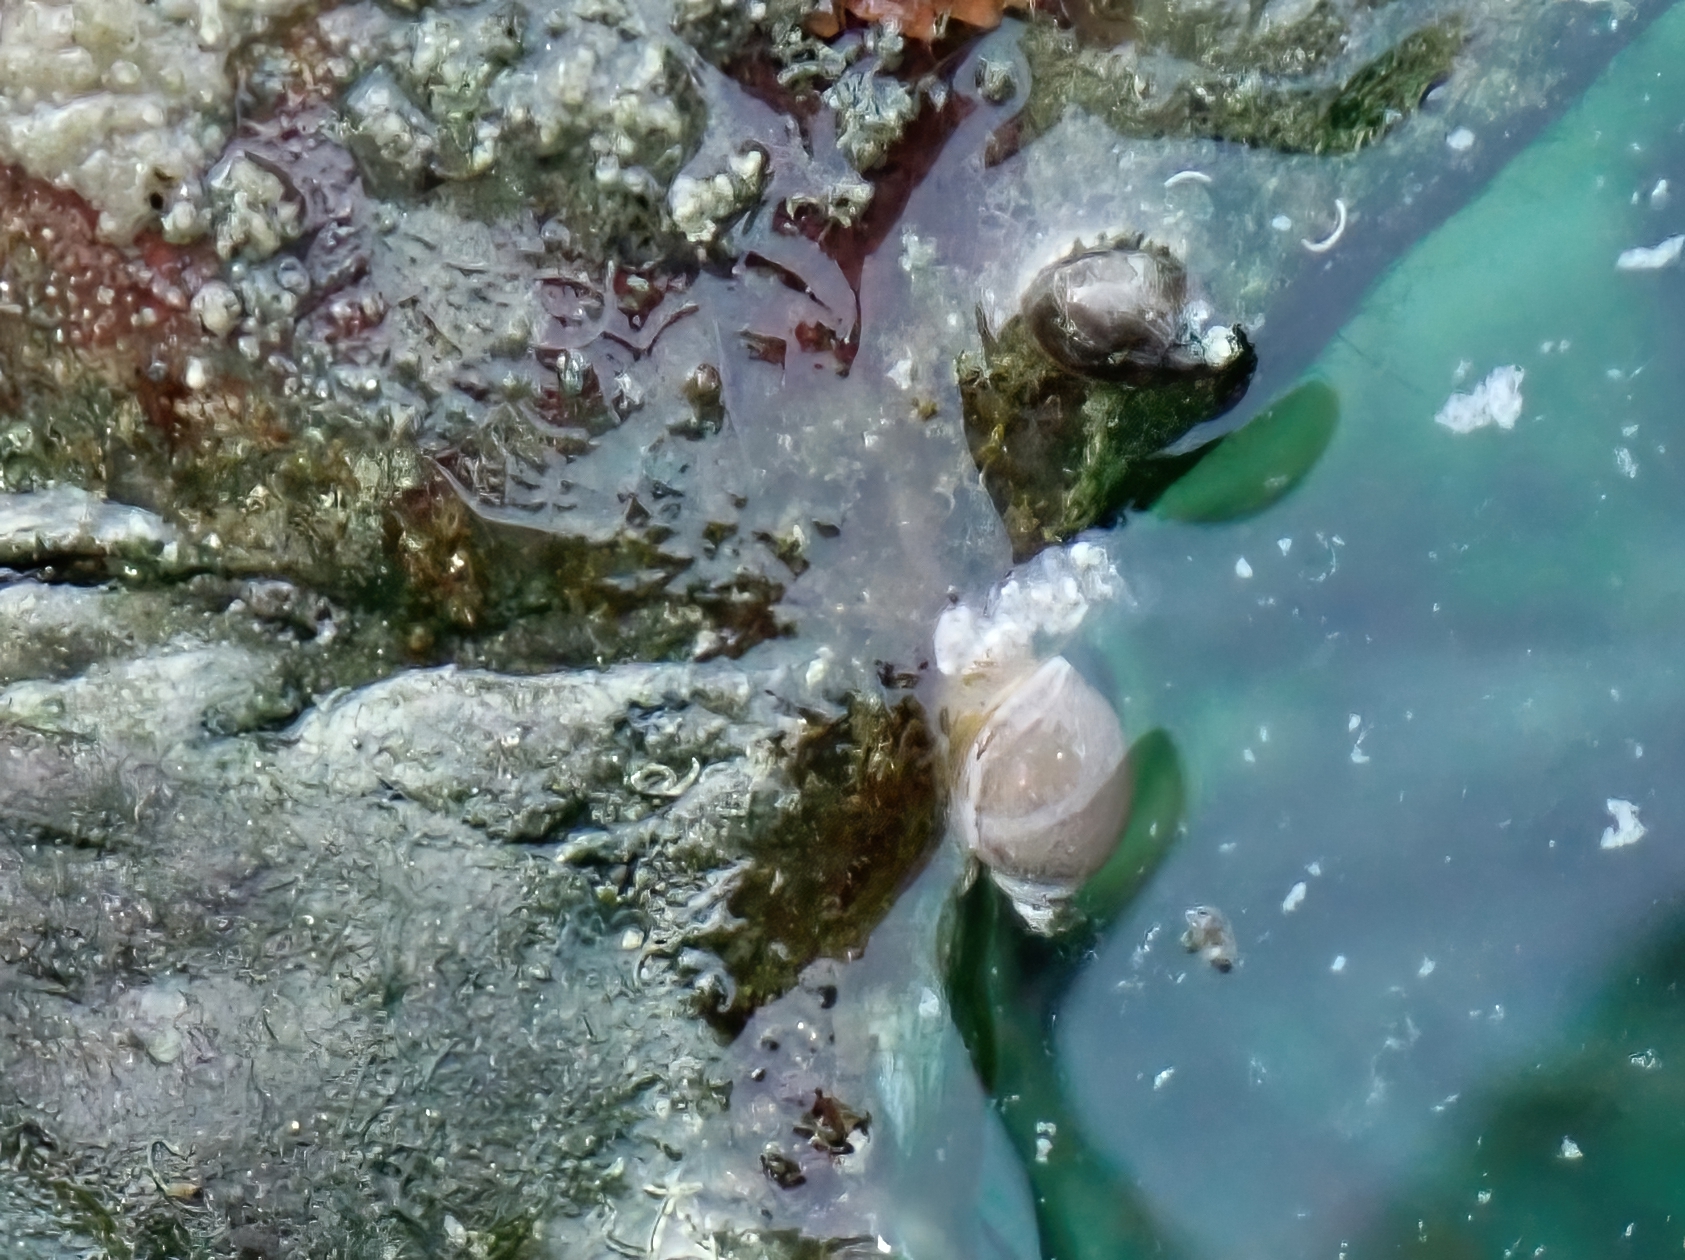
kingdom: Animalia
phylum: Mollusca
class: Gastropoda
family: Physidae
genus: Physella
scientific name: Physella johnsoni
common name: Banff springs physa
